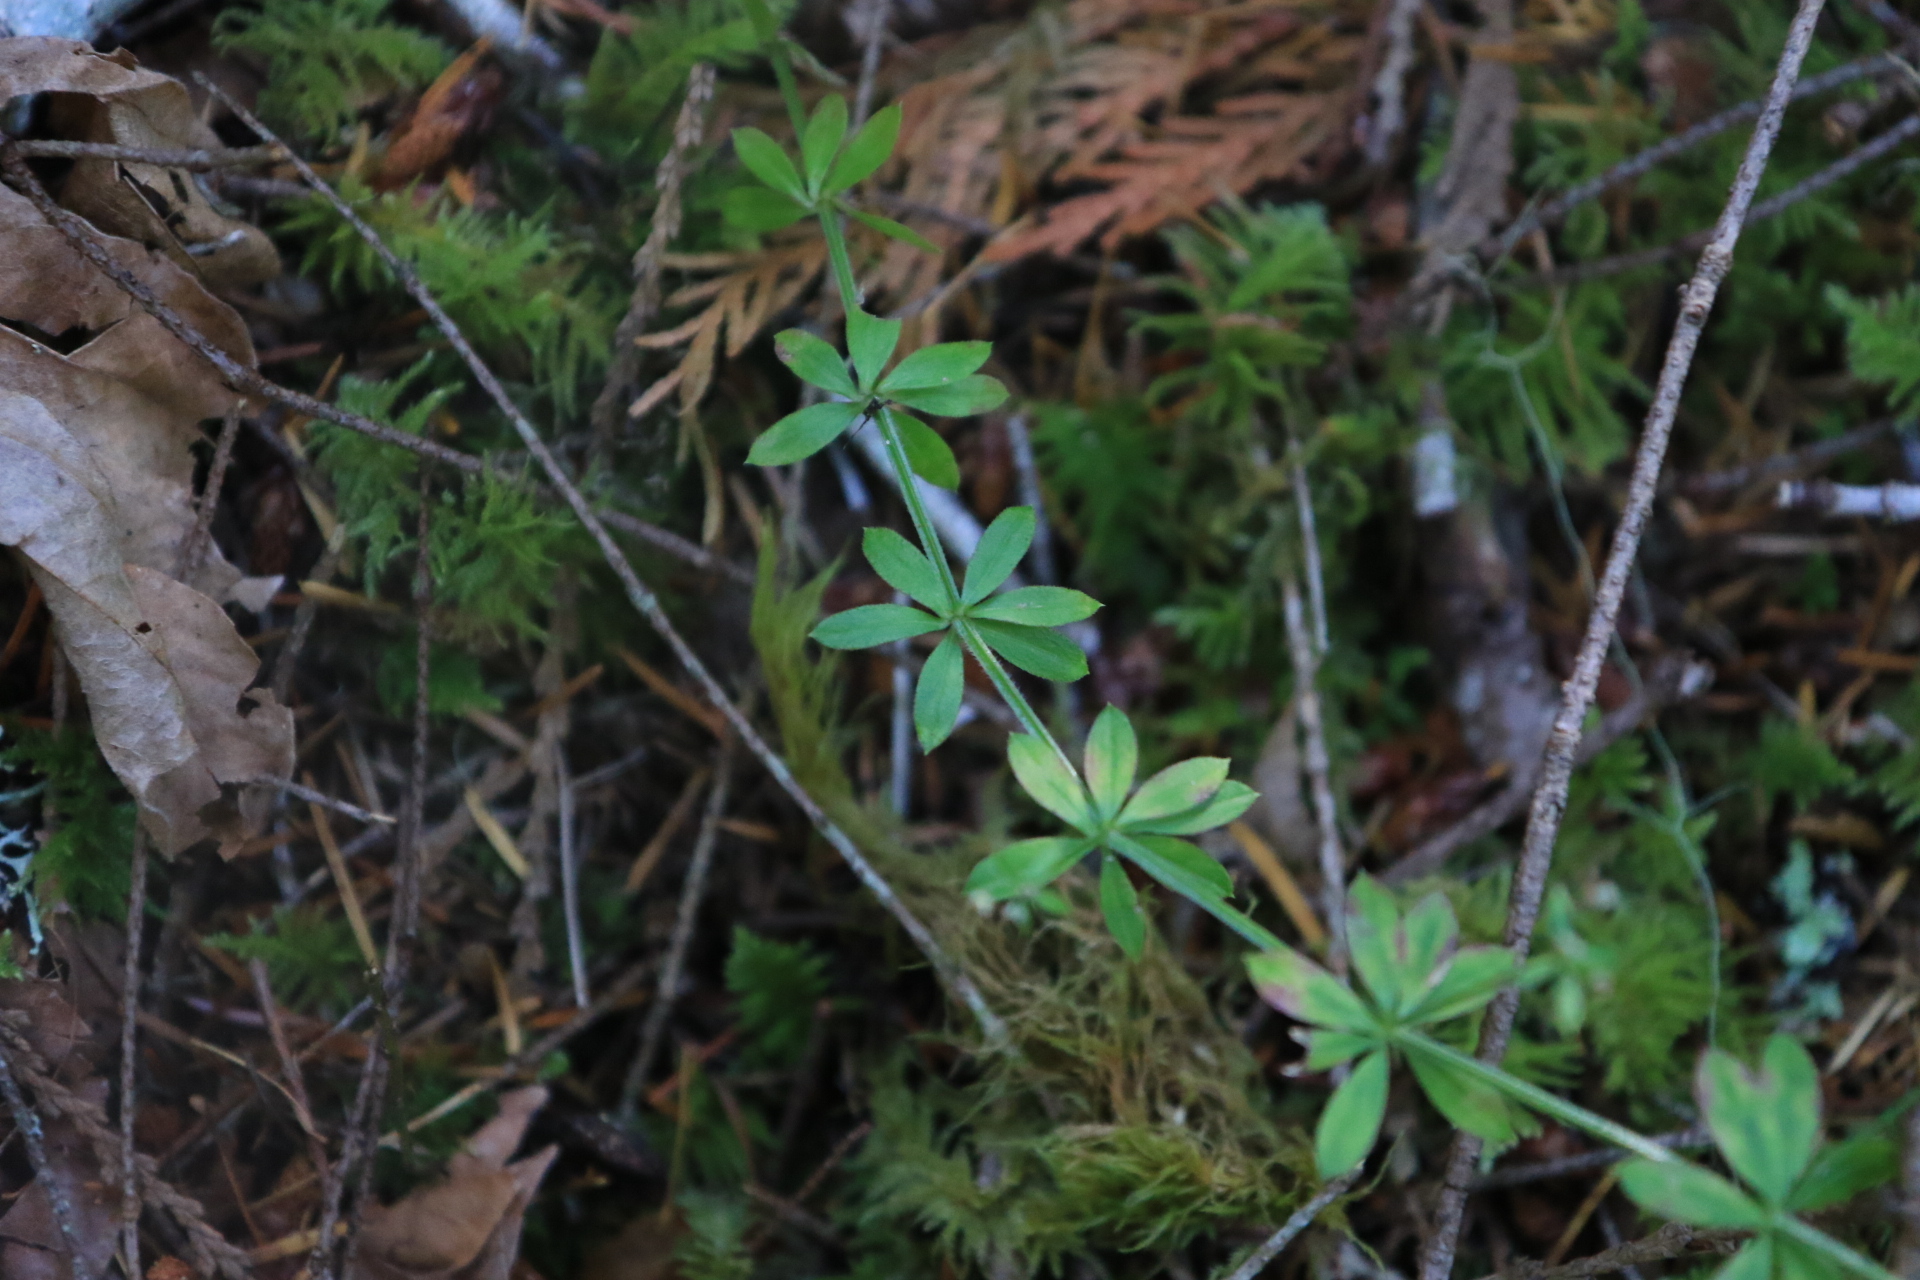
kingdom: Plantae
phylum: Tracheophyta
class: Magnoliopsida
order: Gentianales
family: Rubiaceae
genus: Galium
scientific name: Galium triflorum
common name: Fragrant bedstraw
